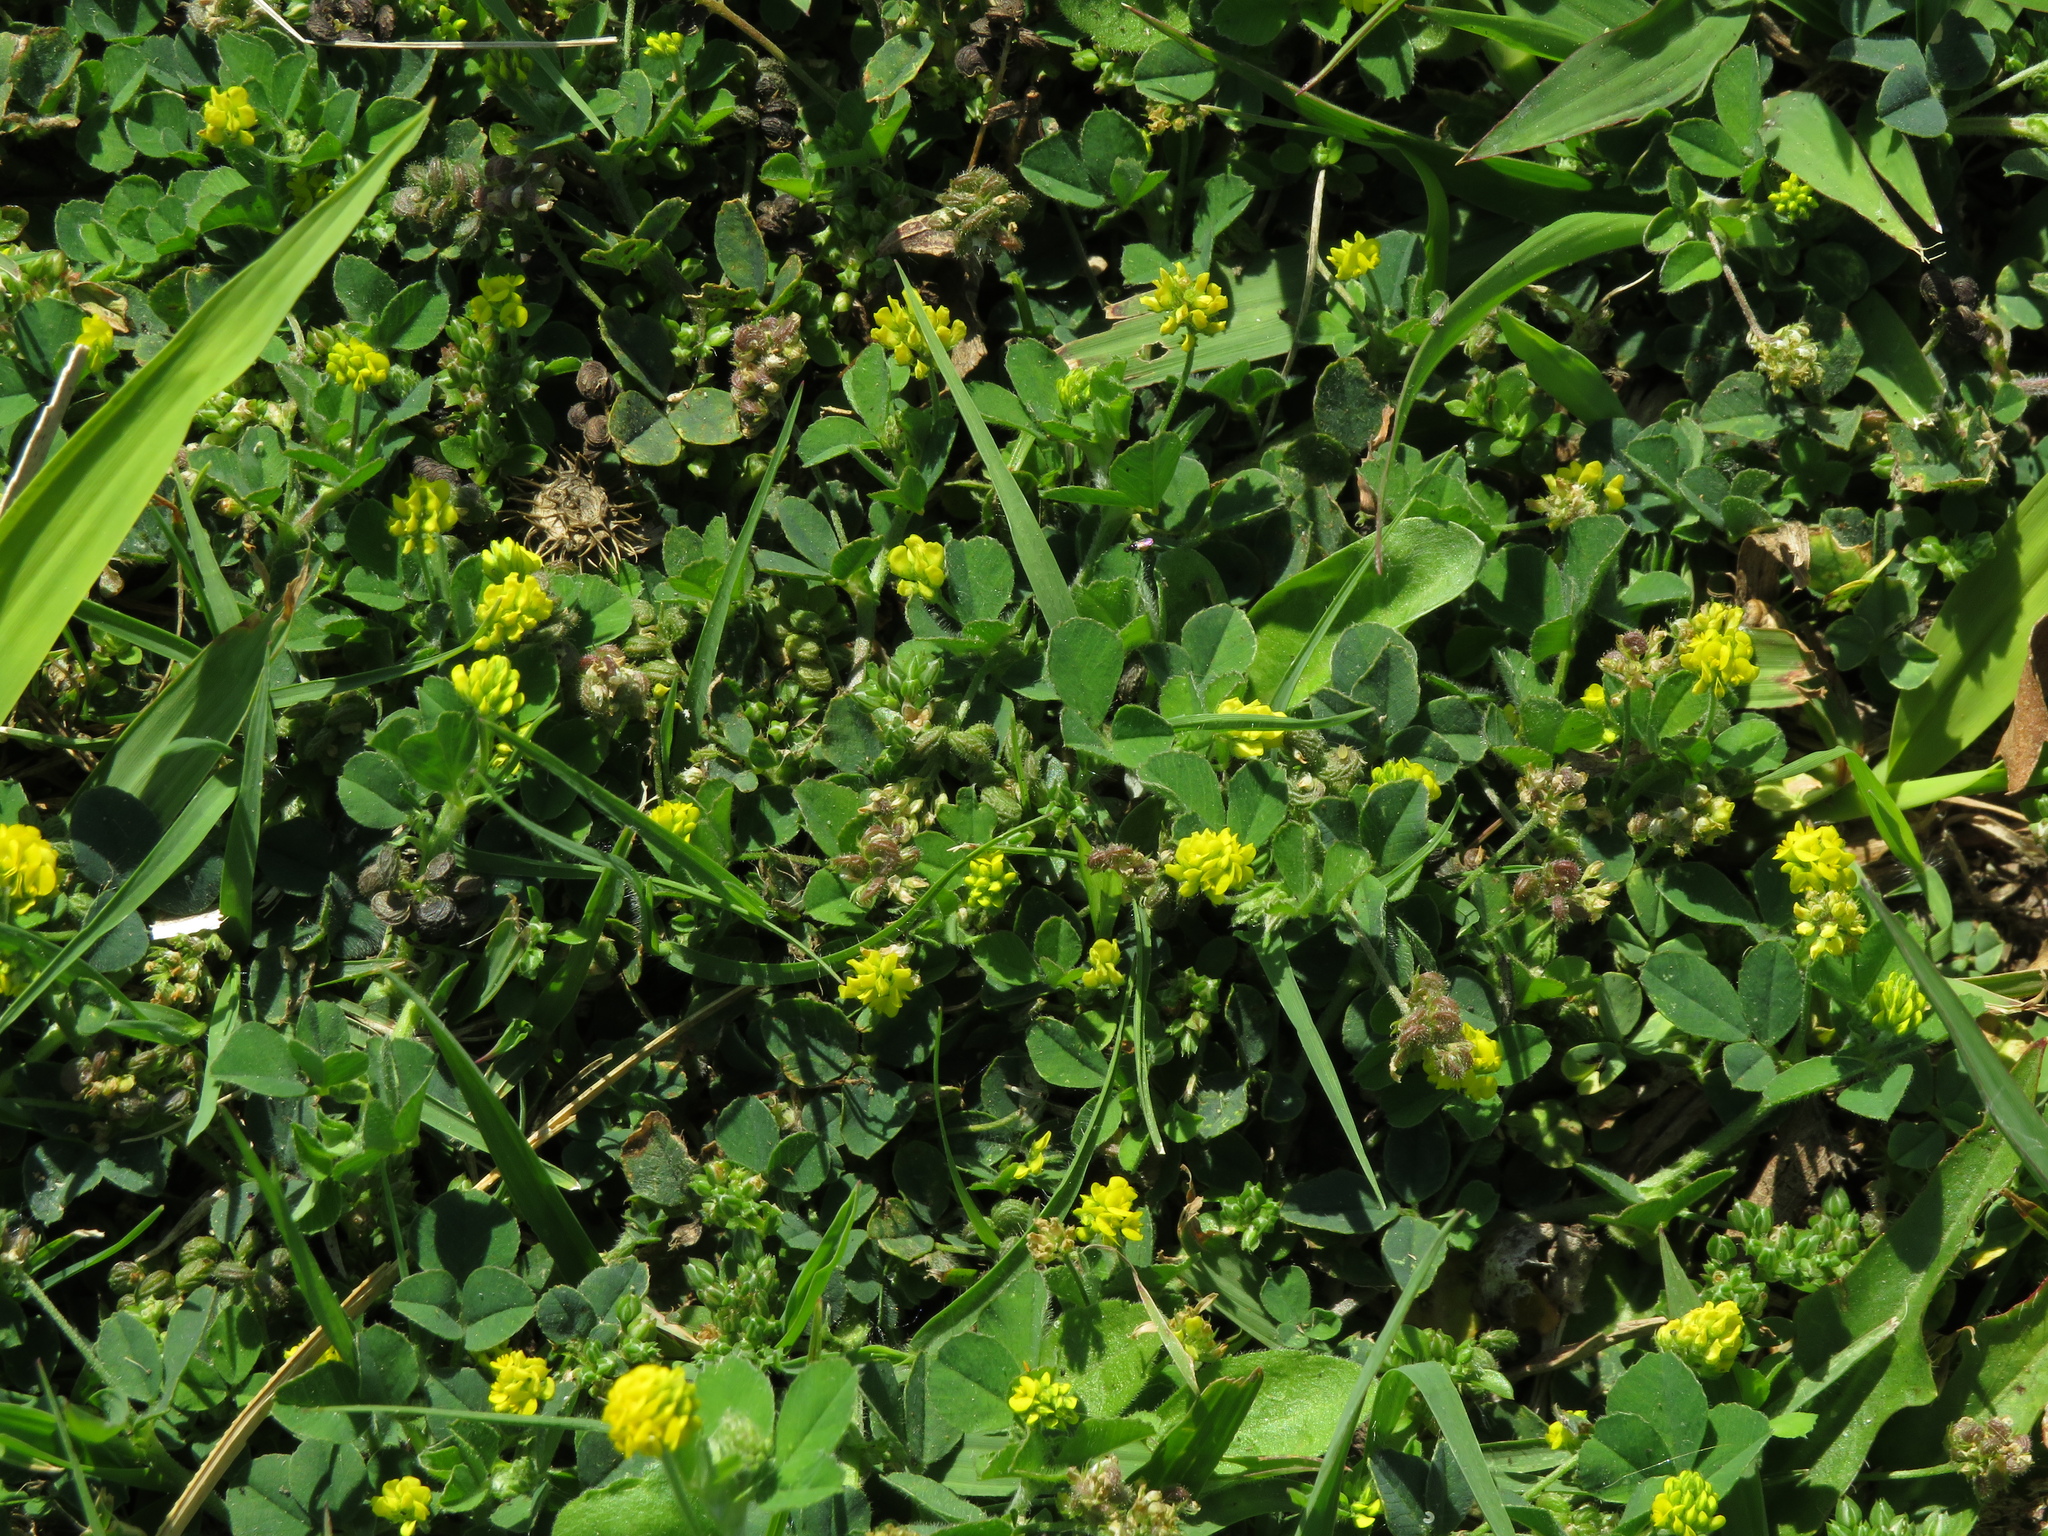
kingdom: Plantae
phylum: Tracheophyta
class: Magnoliopsida
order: Fabales
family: Fabaceae
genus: Medicago
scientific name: Medicago lupulina
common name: Black medick
